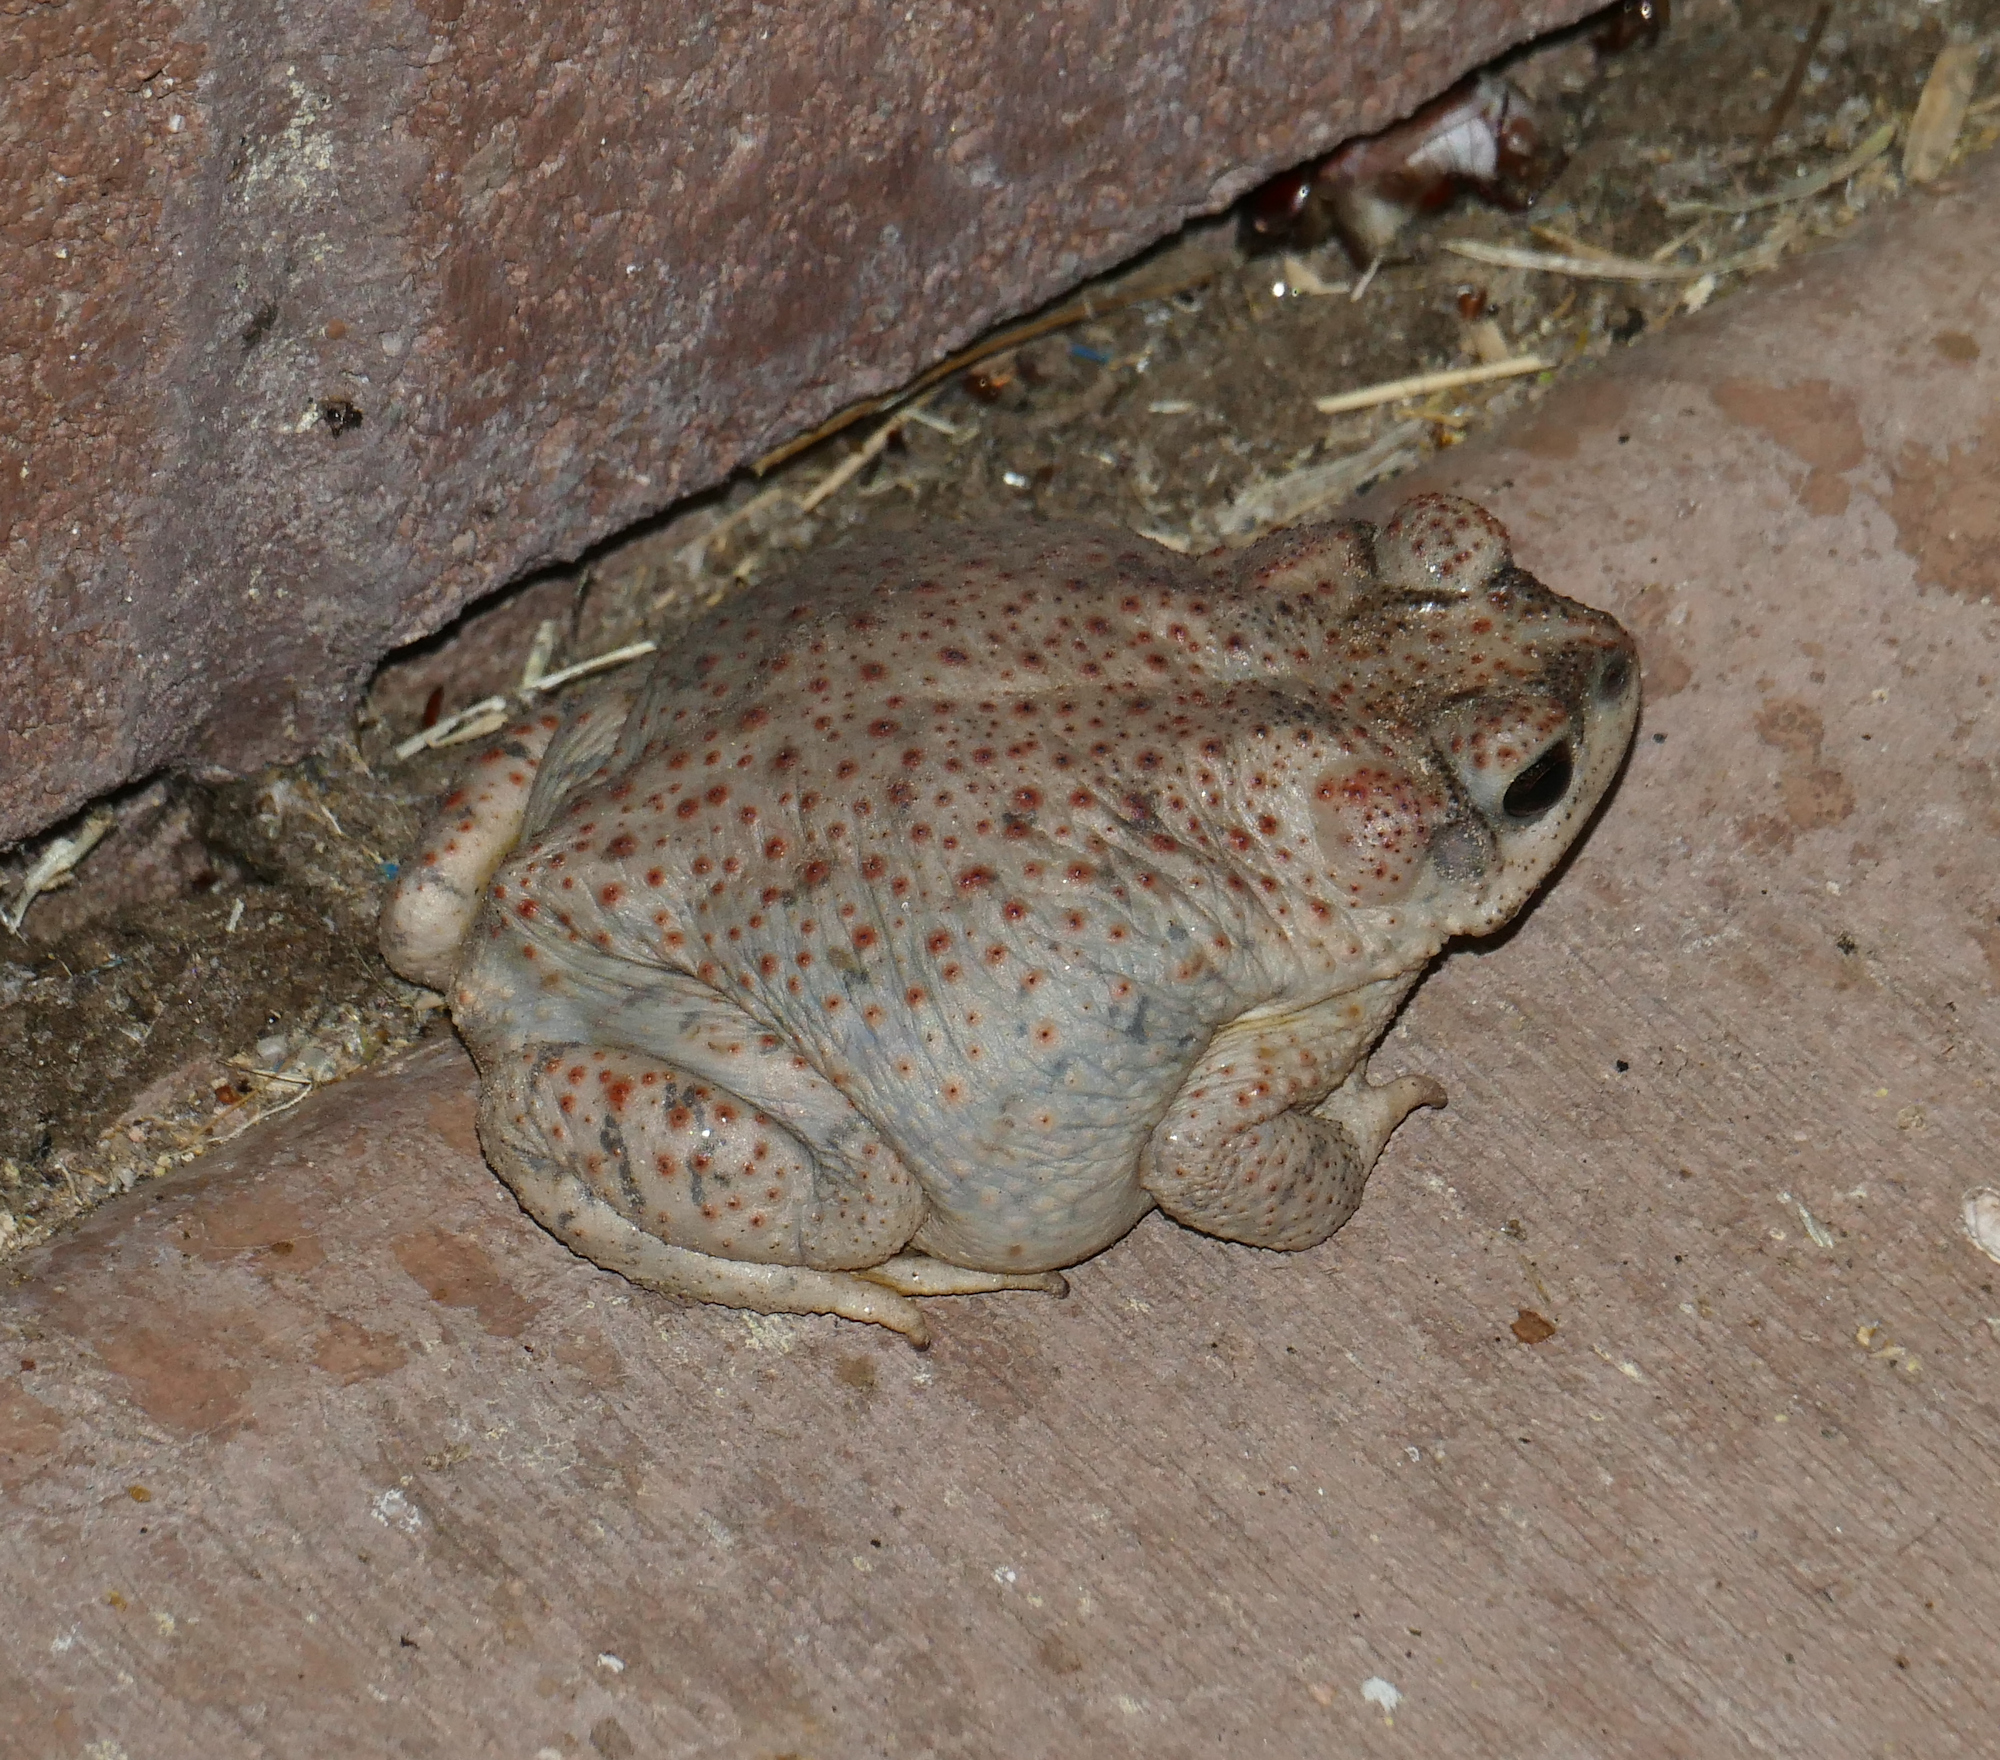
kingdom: Animalia
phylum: Chordata
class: Amphibia
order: Anura
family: Bufonidae
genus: Anaxyrus
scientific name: Anaxyrus punctatus
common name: Red-spotted toad
